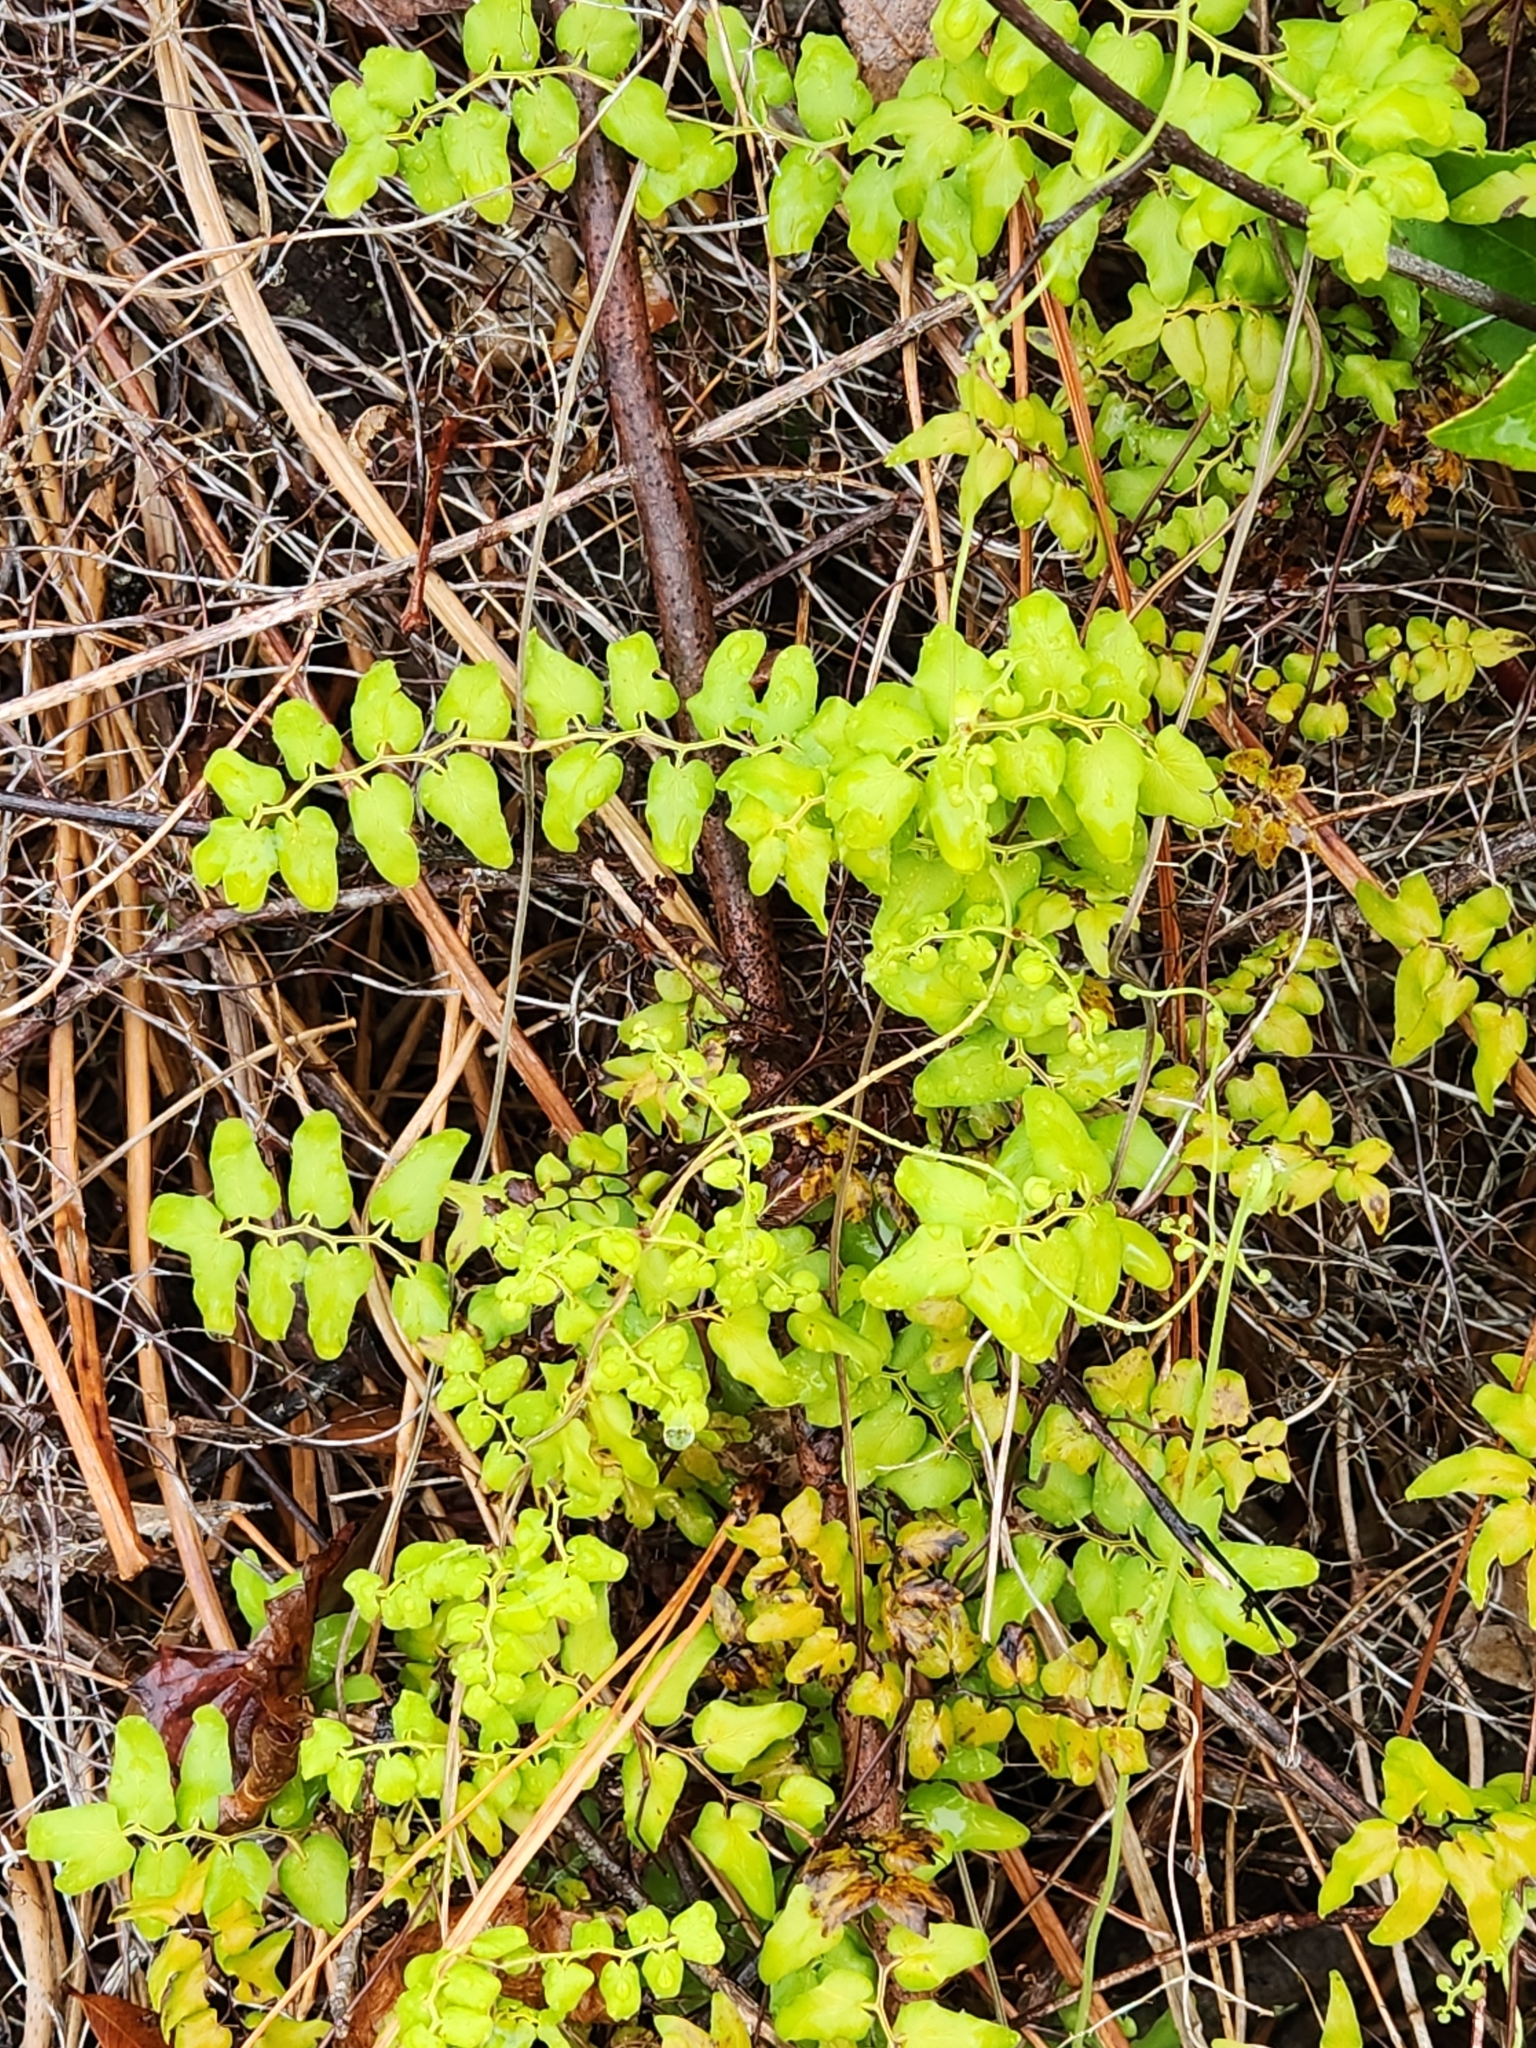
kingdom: Plantae
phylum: Tracheophyta
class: Polypodiopsida
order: Schizaeales
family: Lygodiaceae
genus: Lygodium
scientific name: Lygodium microphyllum
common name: Small-leaf climbing fern
